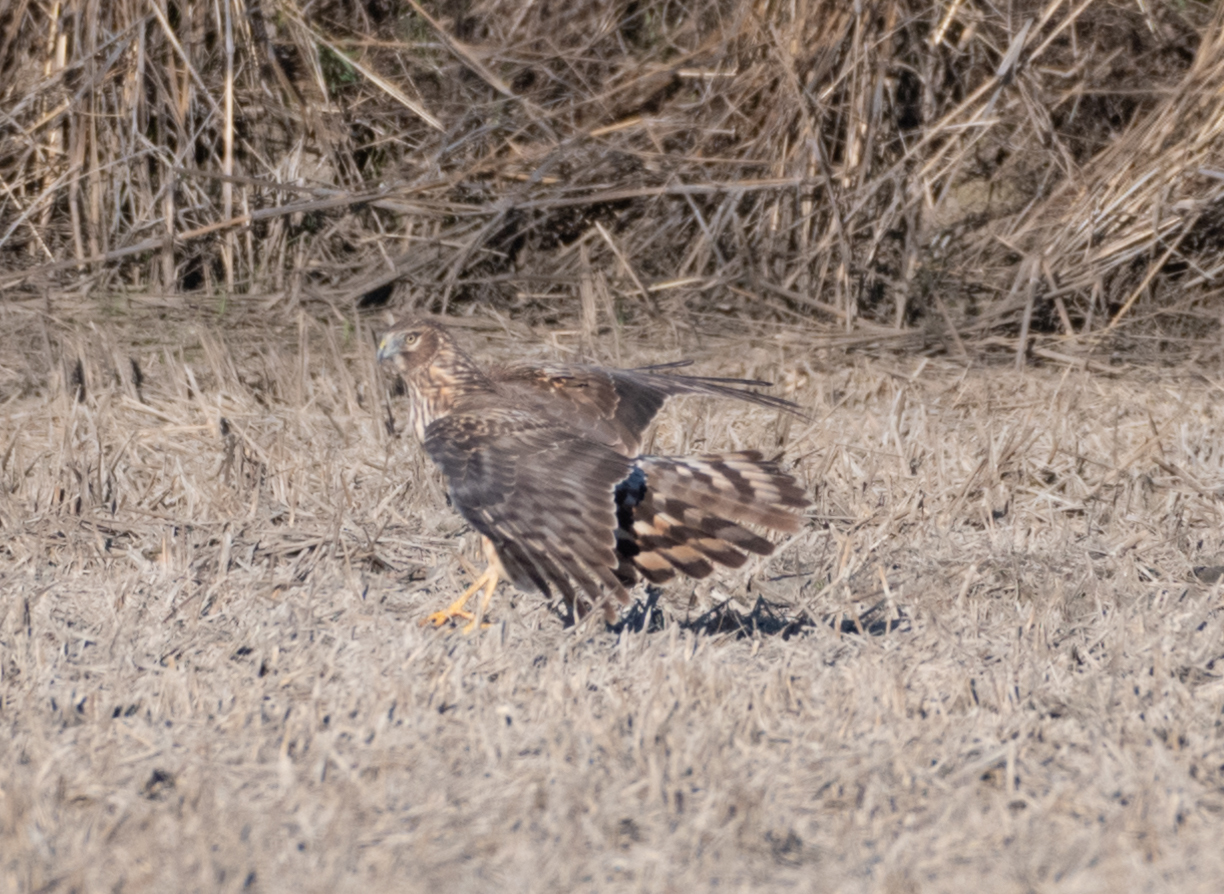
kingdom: Animalia
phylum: Chordata
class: Aves
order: Accipitriformes
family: Accipitridae
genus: Circus
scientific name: Circus cyaneus
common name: Hen harrier
